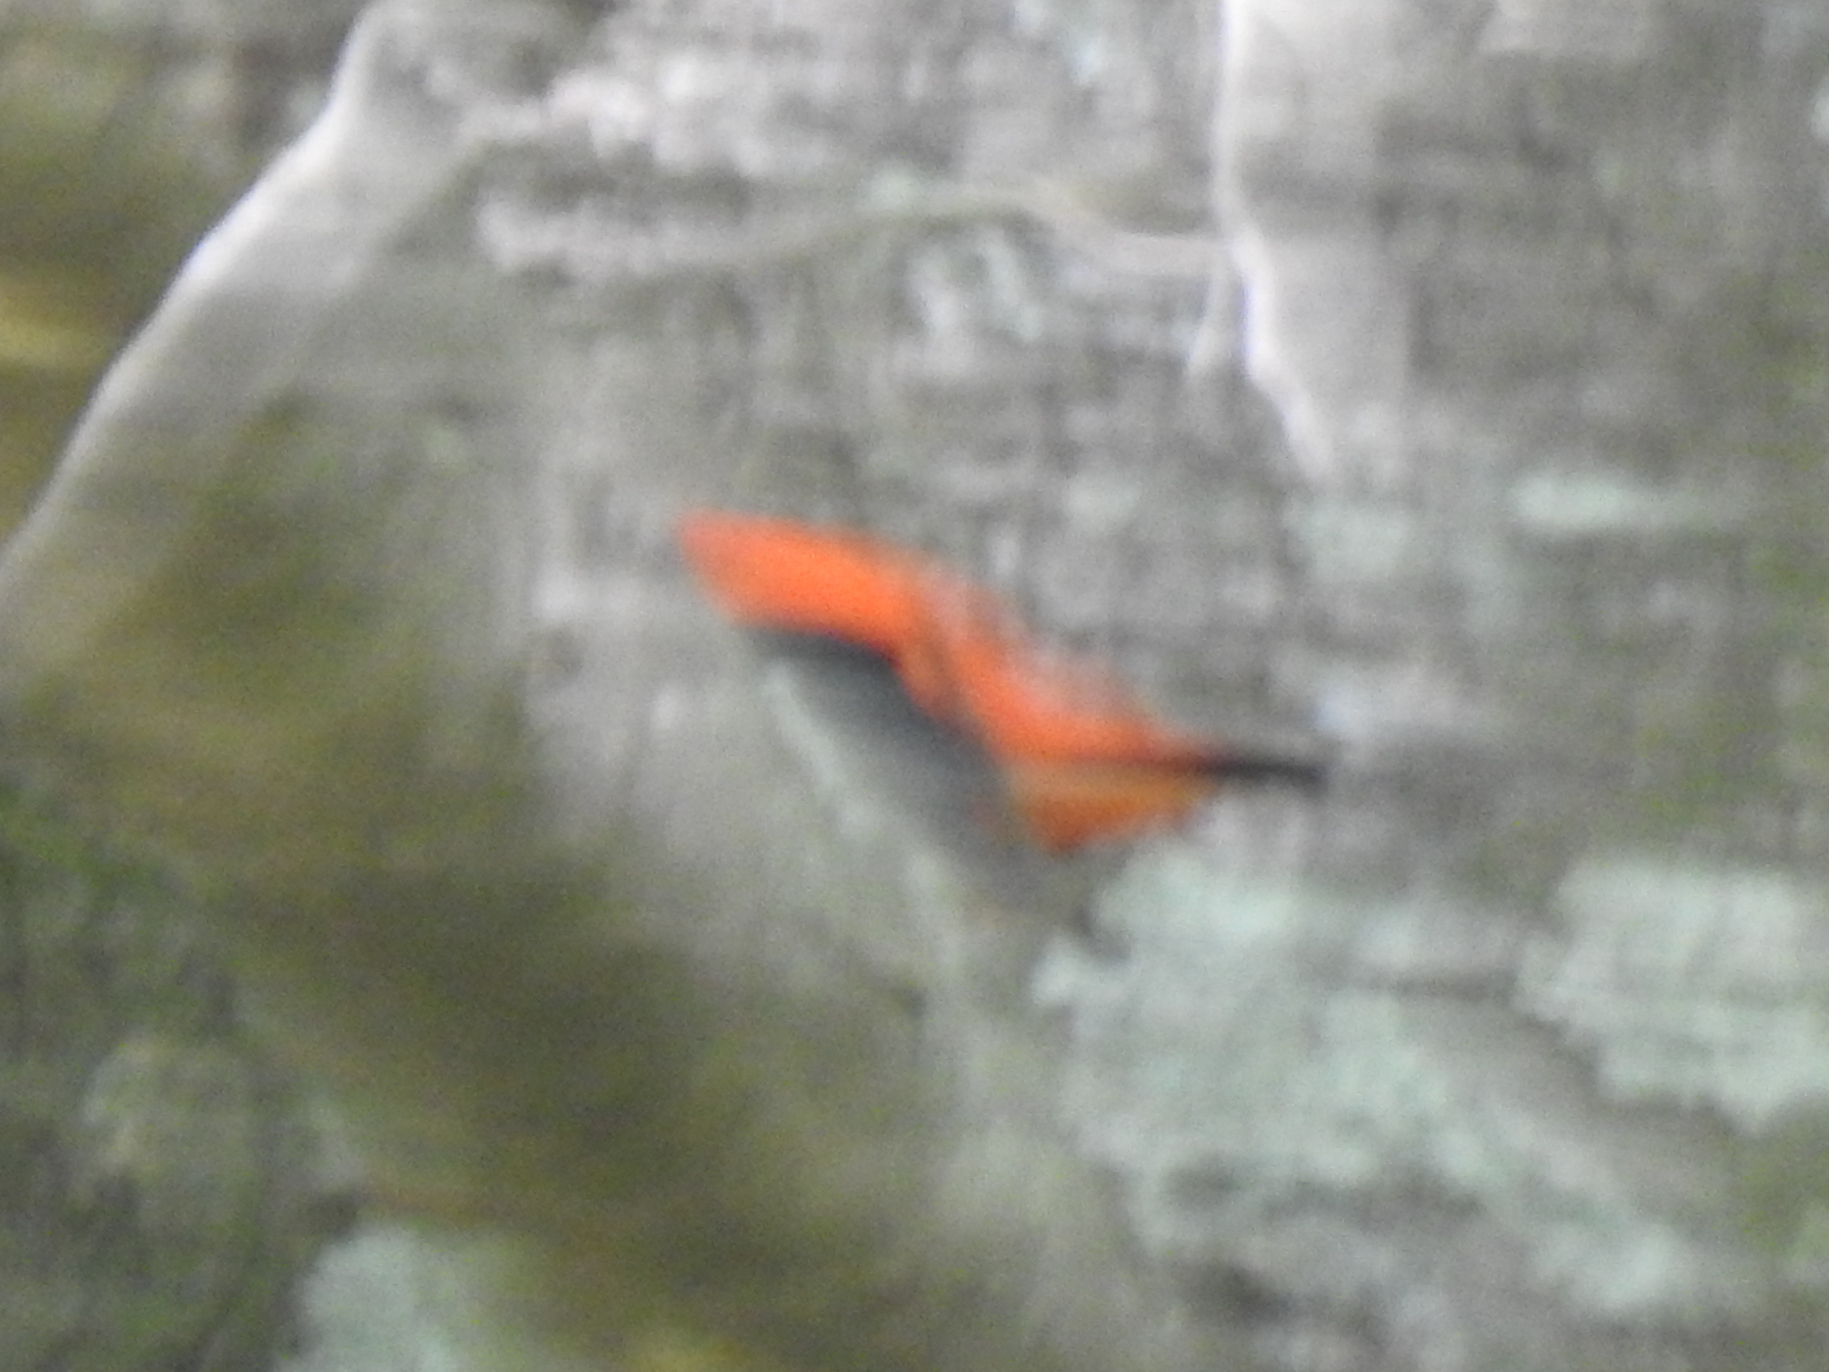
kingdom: Animalia
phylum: Chordata
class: Aves
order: Passeriformes
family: Cardinalidae
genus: Piranga
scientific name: Piranga olivacea
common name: Scarlet tanager
